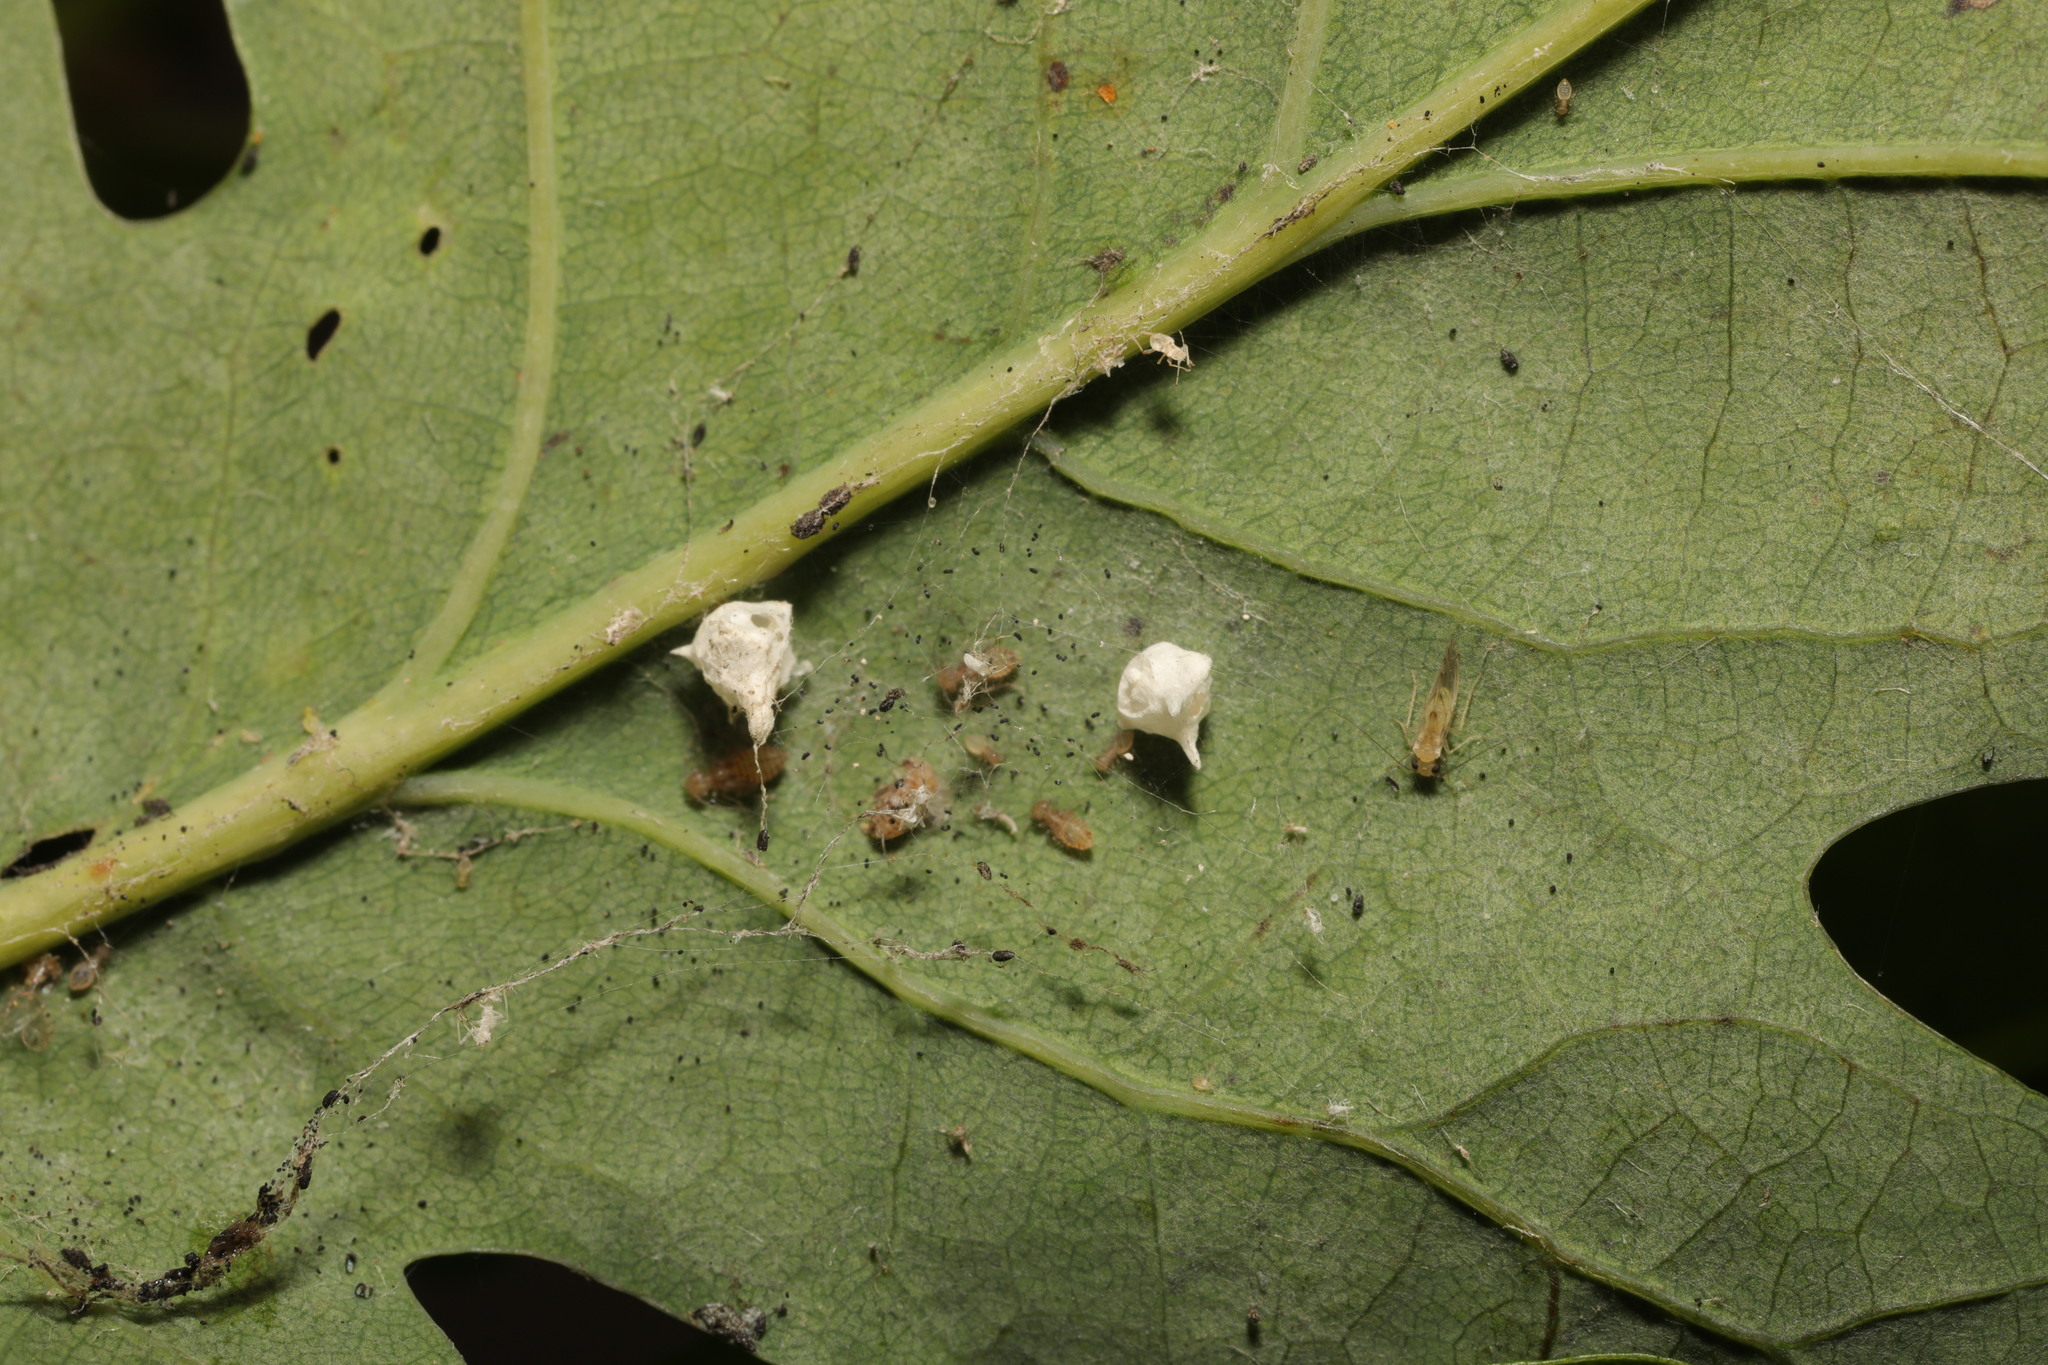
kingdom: Animalia
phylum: Arthropoda
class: Arachnida
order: Araneae
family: Theridiidae
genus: Paidiscura
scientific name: Paidiscura pallens
